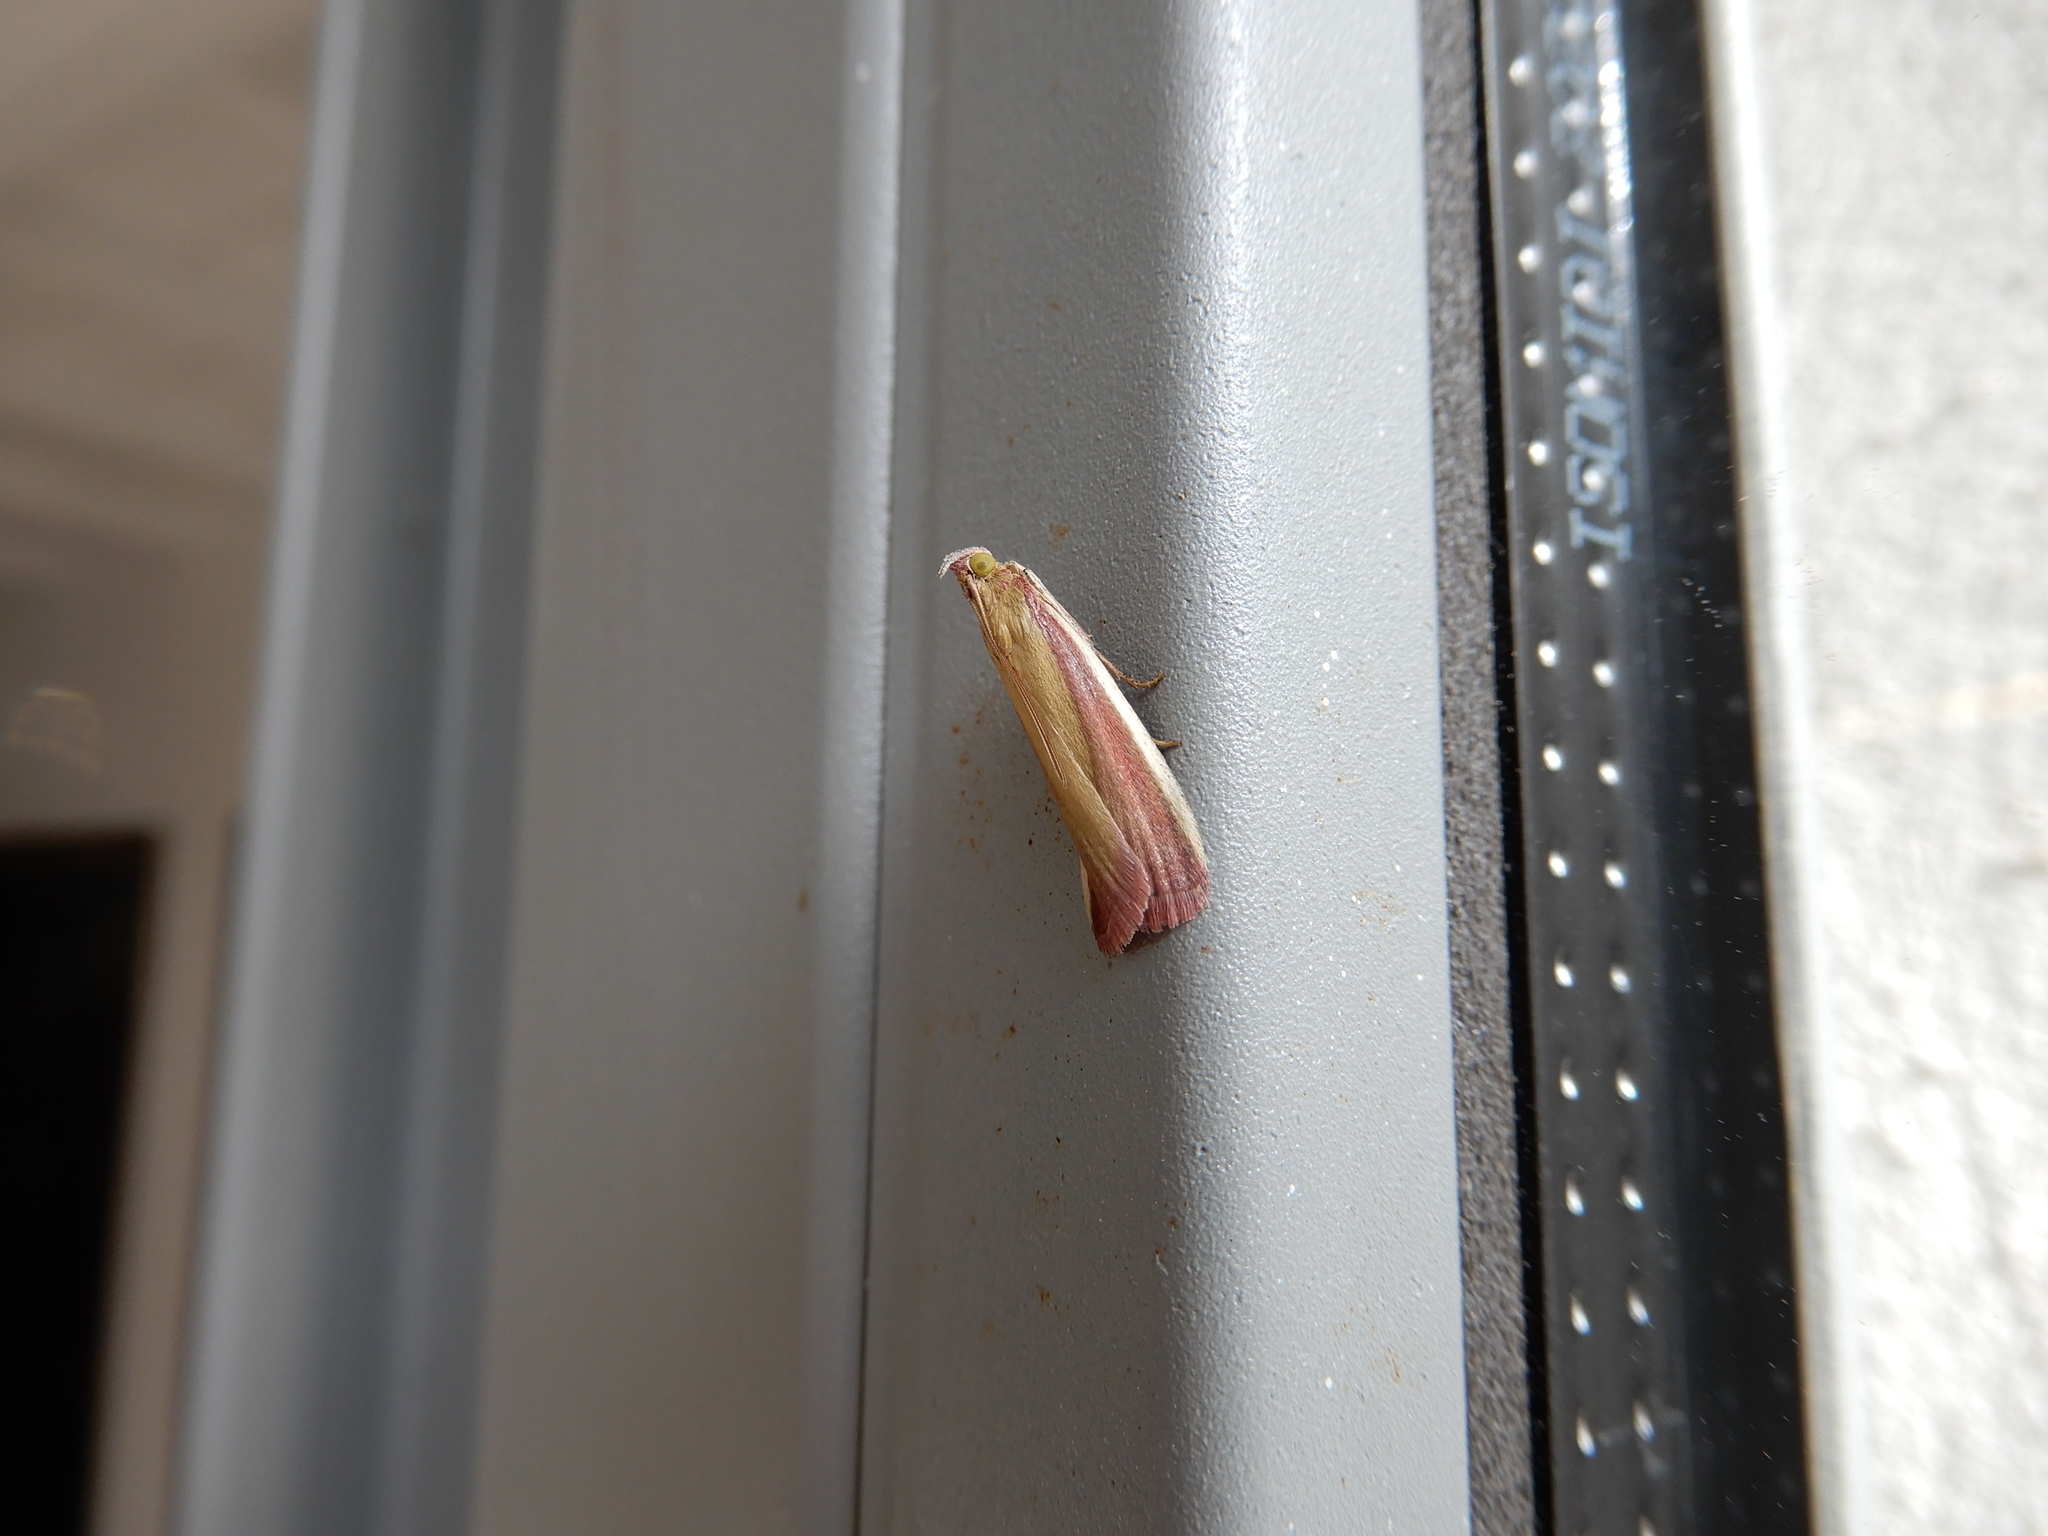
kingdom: Animalia
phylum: Arthropoda
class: Insecta
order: Lepidoptera
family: Pyralidae
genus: Oncocera
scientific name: Oncocera semirubella
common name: Rosy-striped knot-horn
